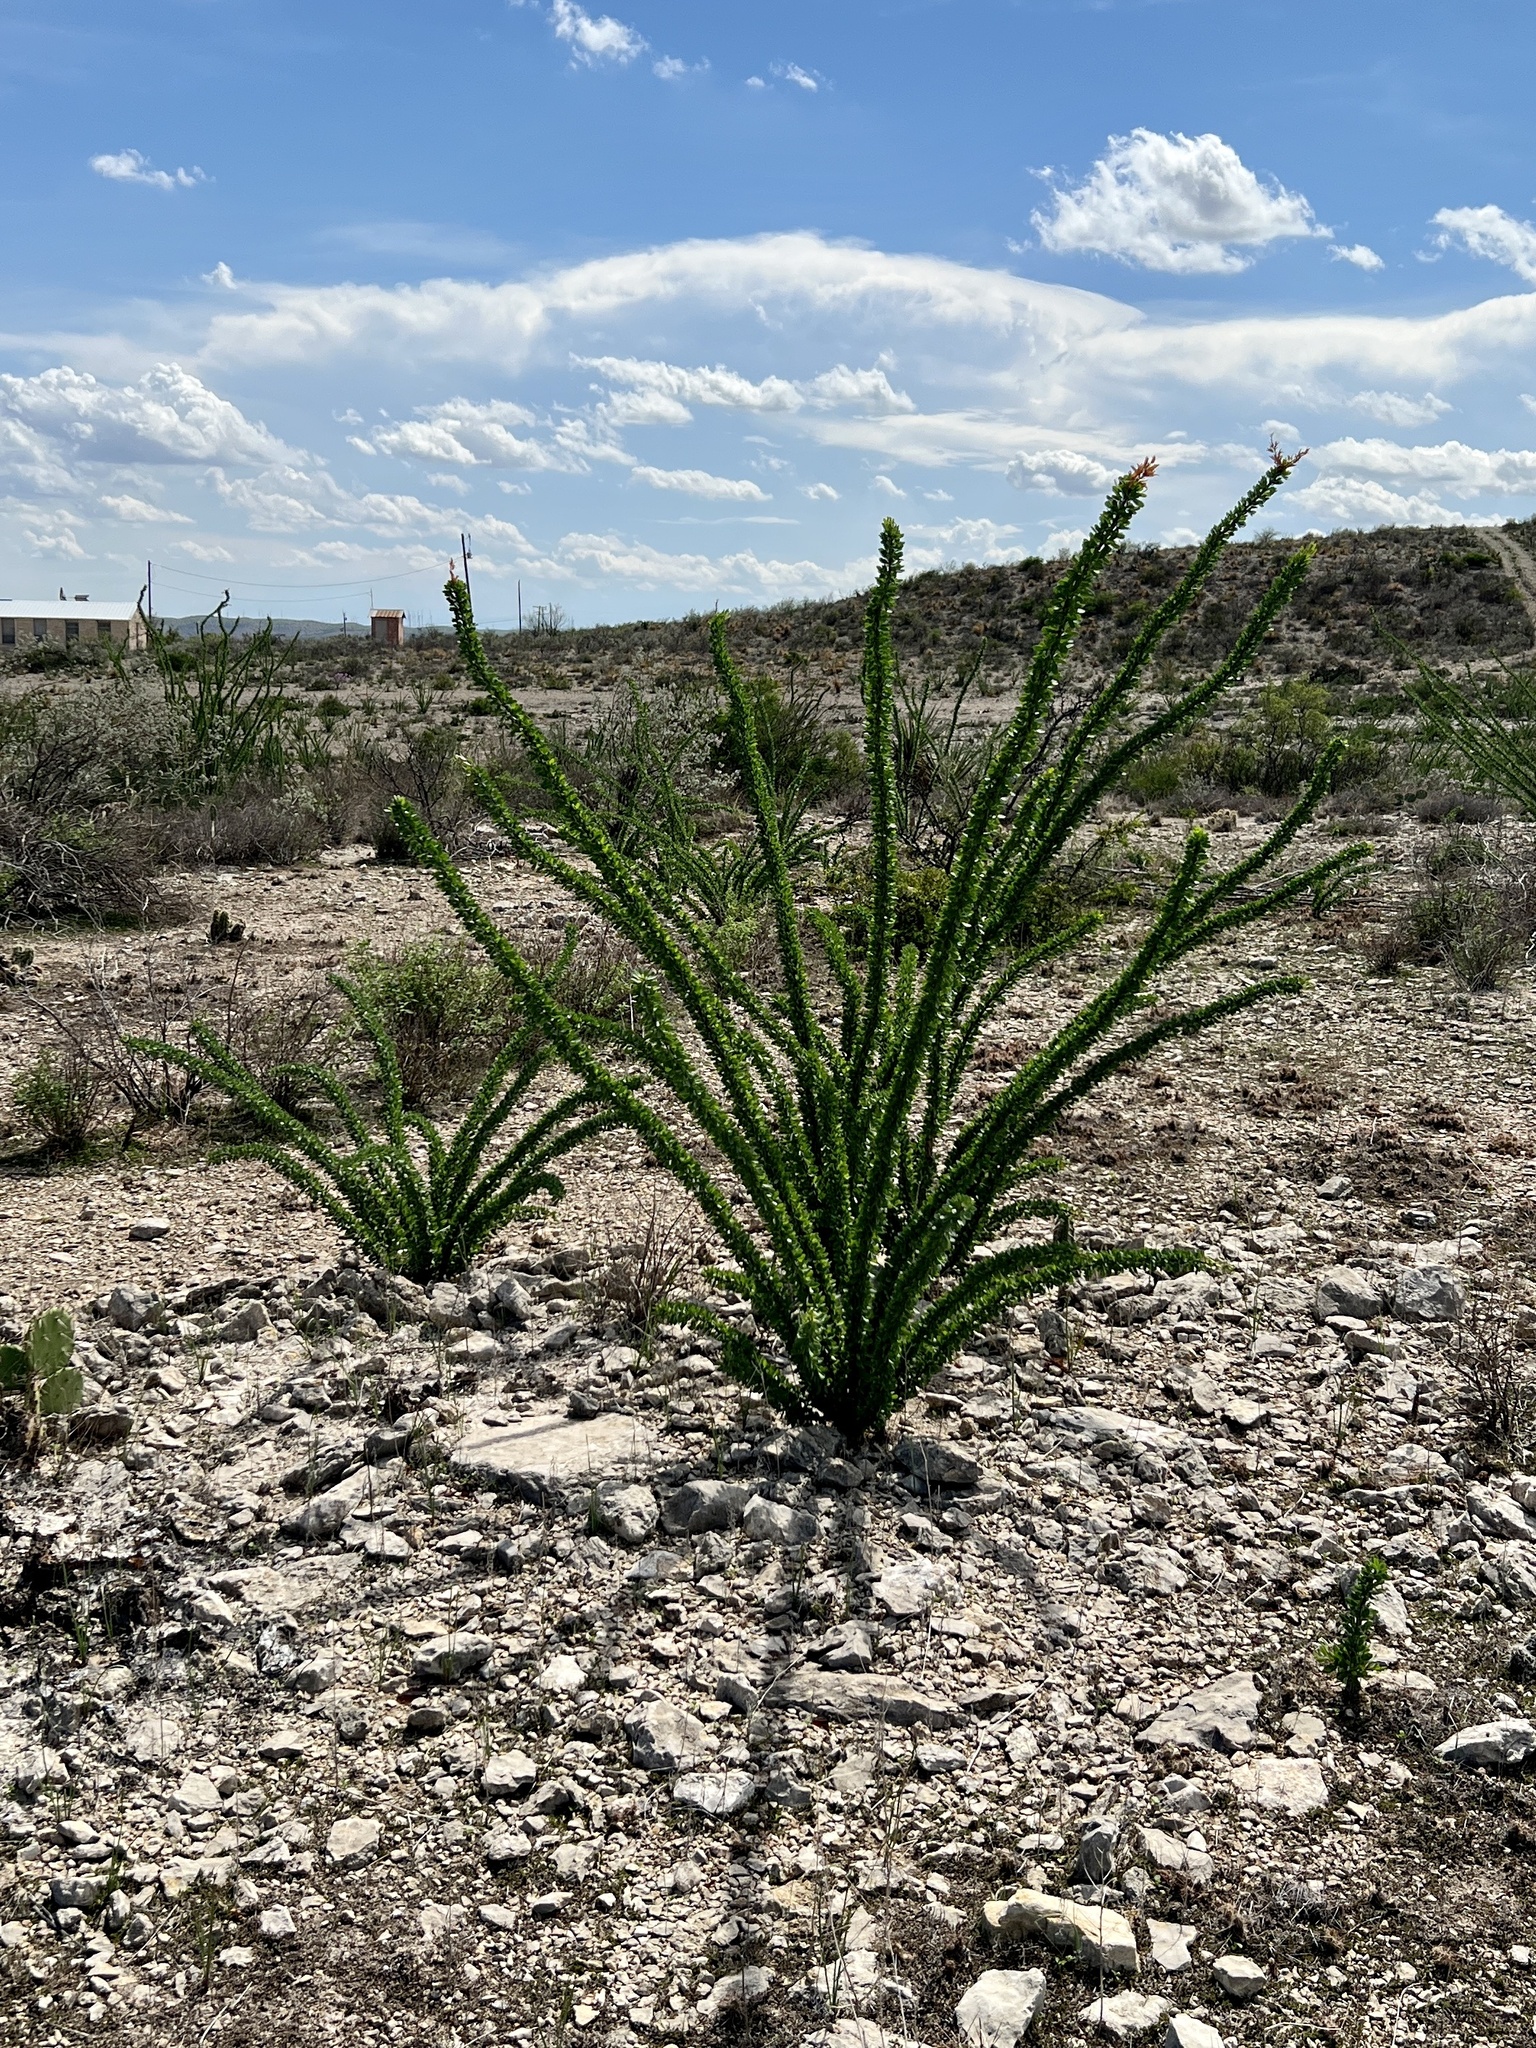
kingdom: Plantae
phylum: Tracheophyta
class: Magnoliopsida
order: Ericales
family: Fouquieriaceae
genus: Fouquieria
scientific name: Fouquieria splendens
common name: Vine-cactus
